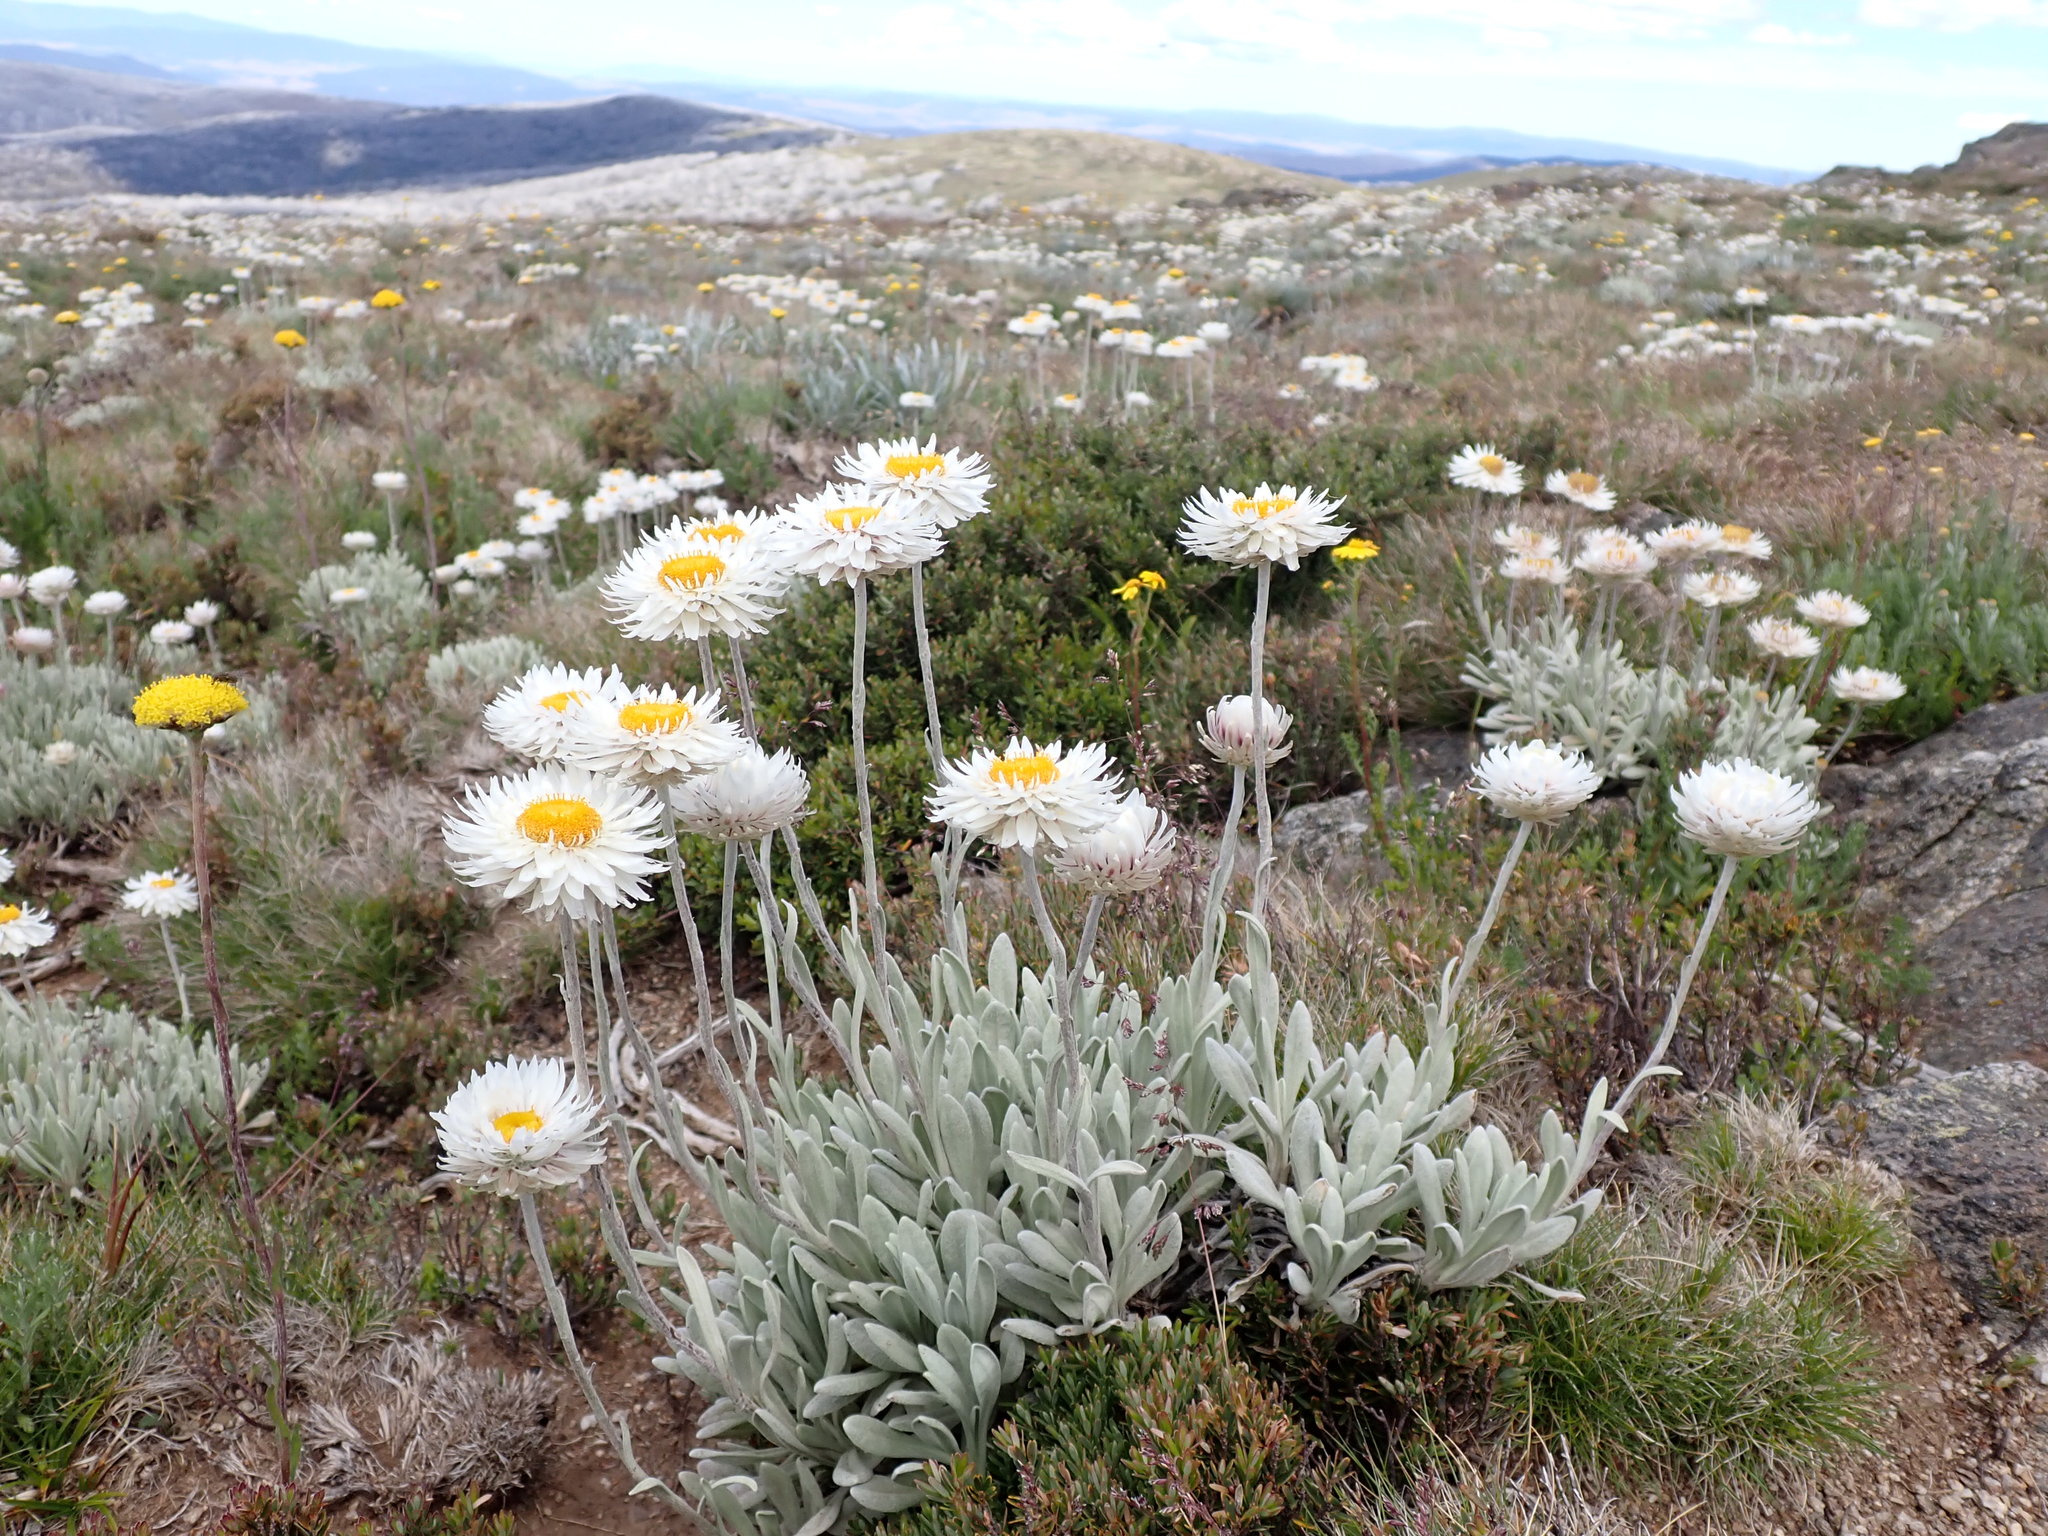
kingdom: Plantae
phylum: Tracheophyta
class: Magnoliopsida
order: Asterales
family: Asteraceae
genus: Leucochrysum
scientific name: Leucochrysum alpinum
